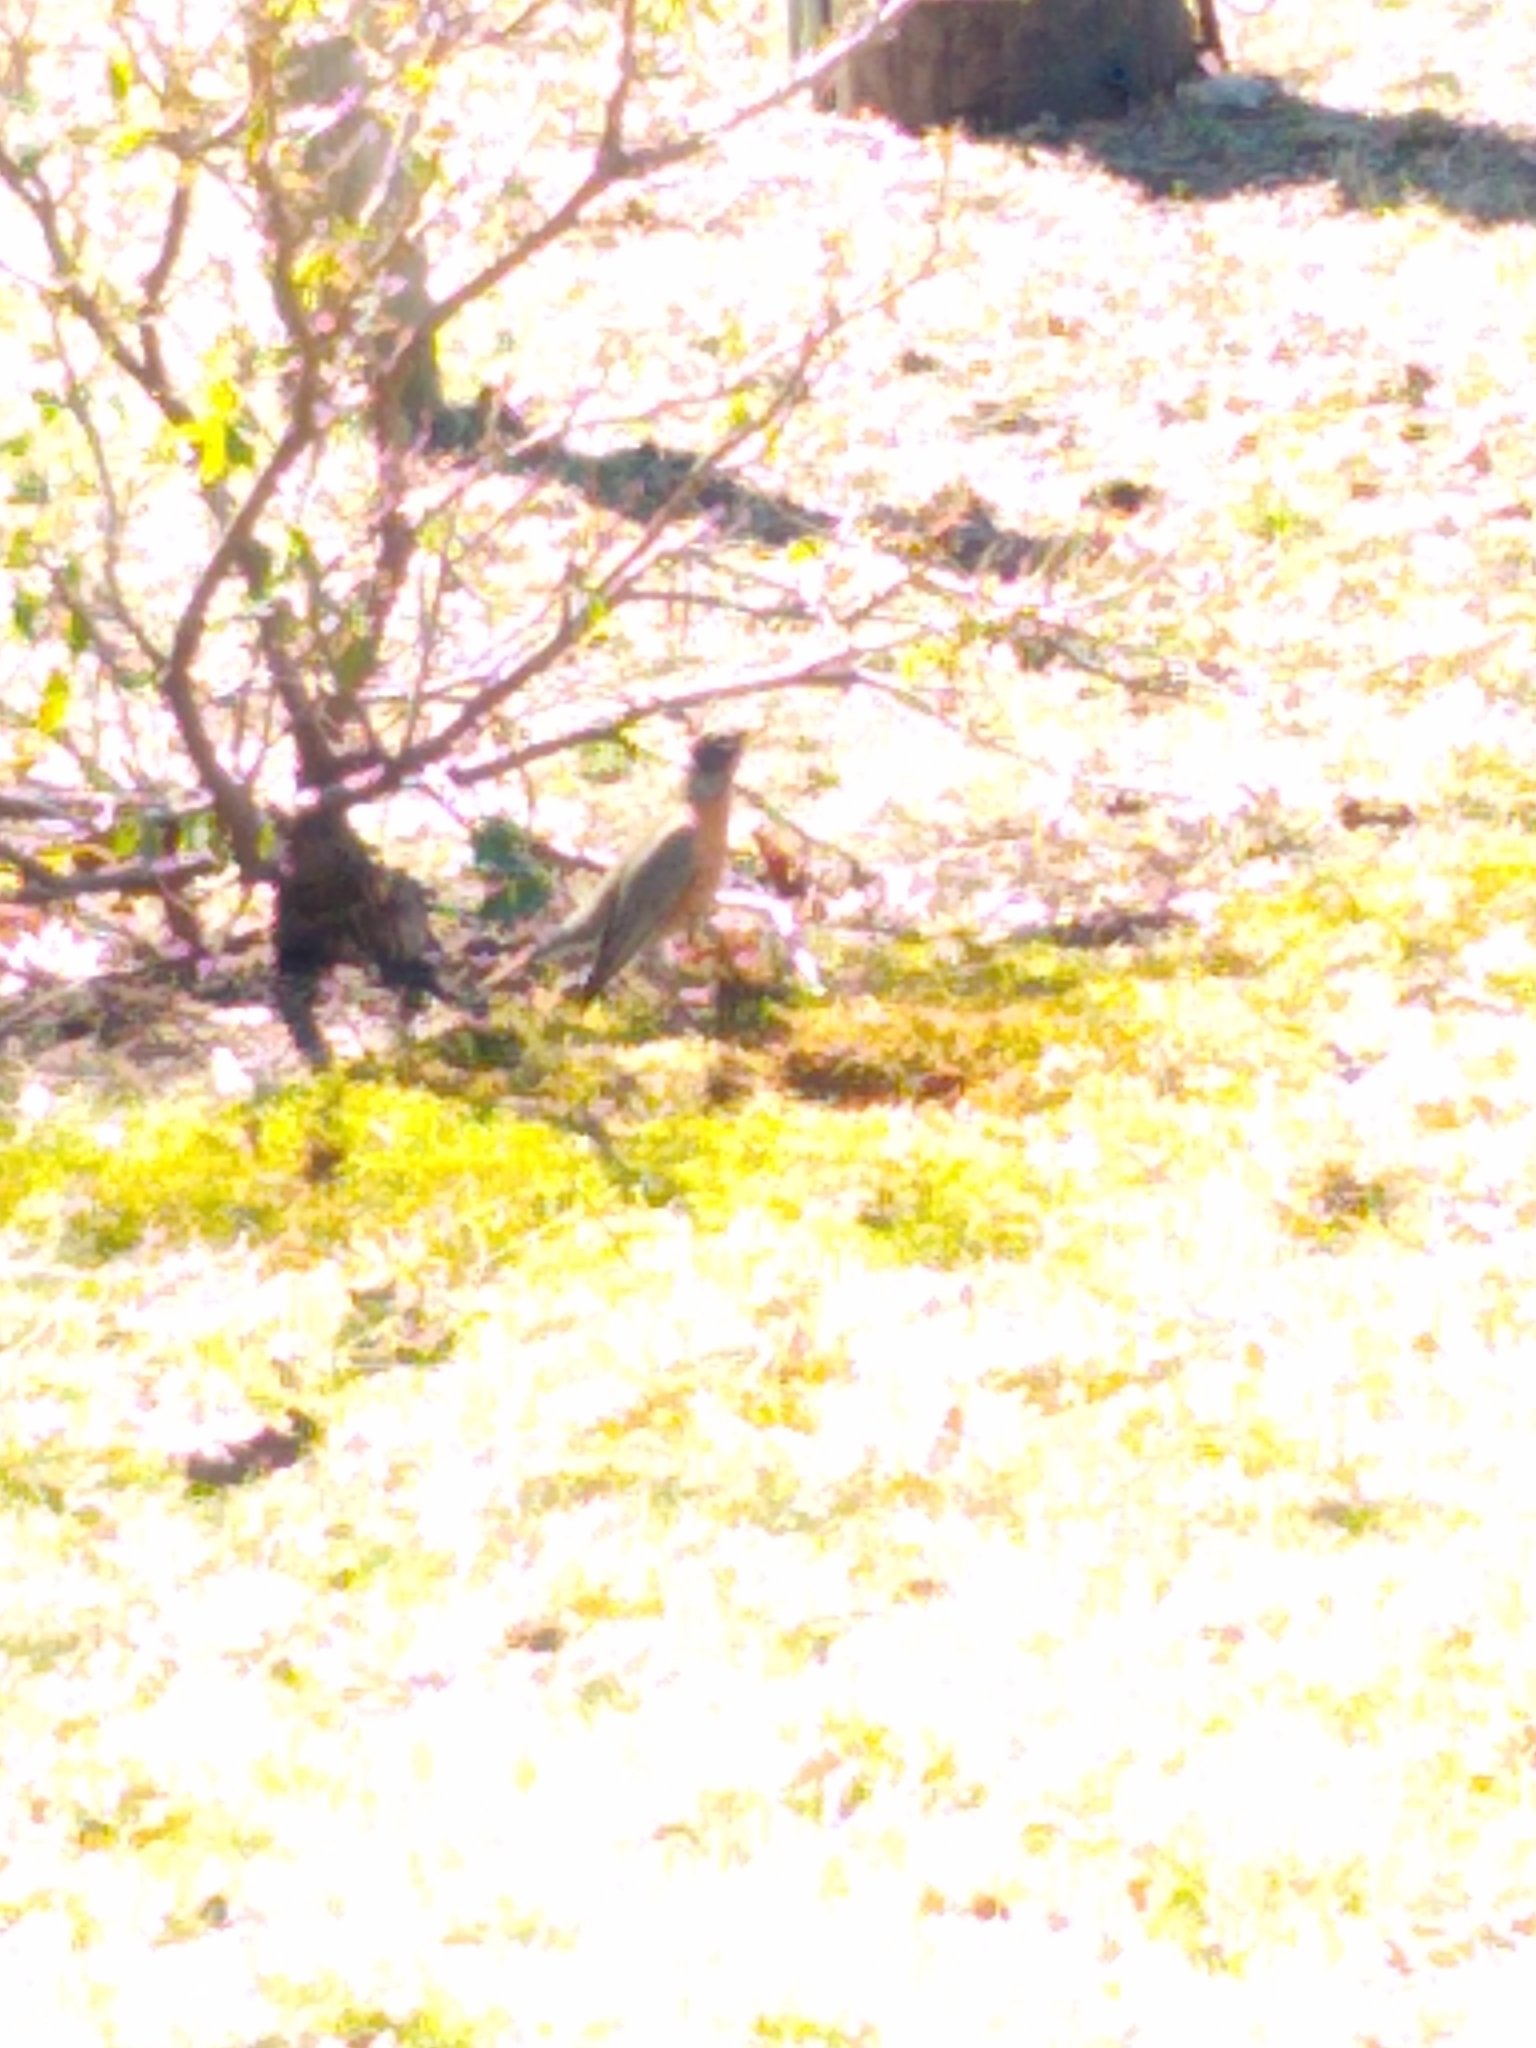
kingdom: Animalia
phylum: Chordata
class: Aves
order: Passeriformes
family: Turdidae
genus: Turdus
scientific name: Turdus migratorius
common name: American robin
